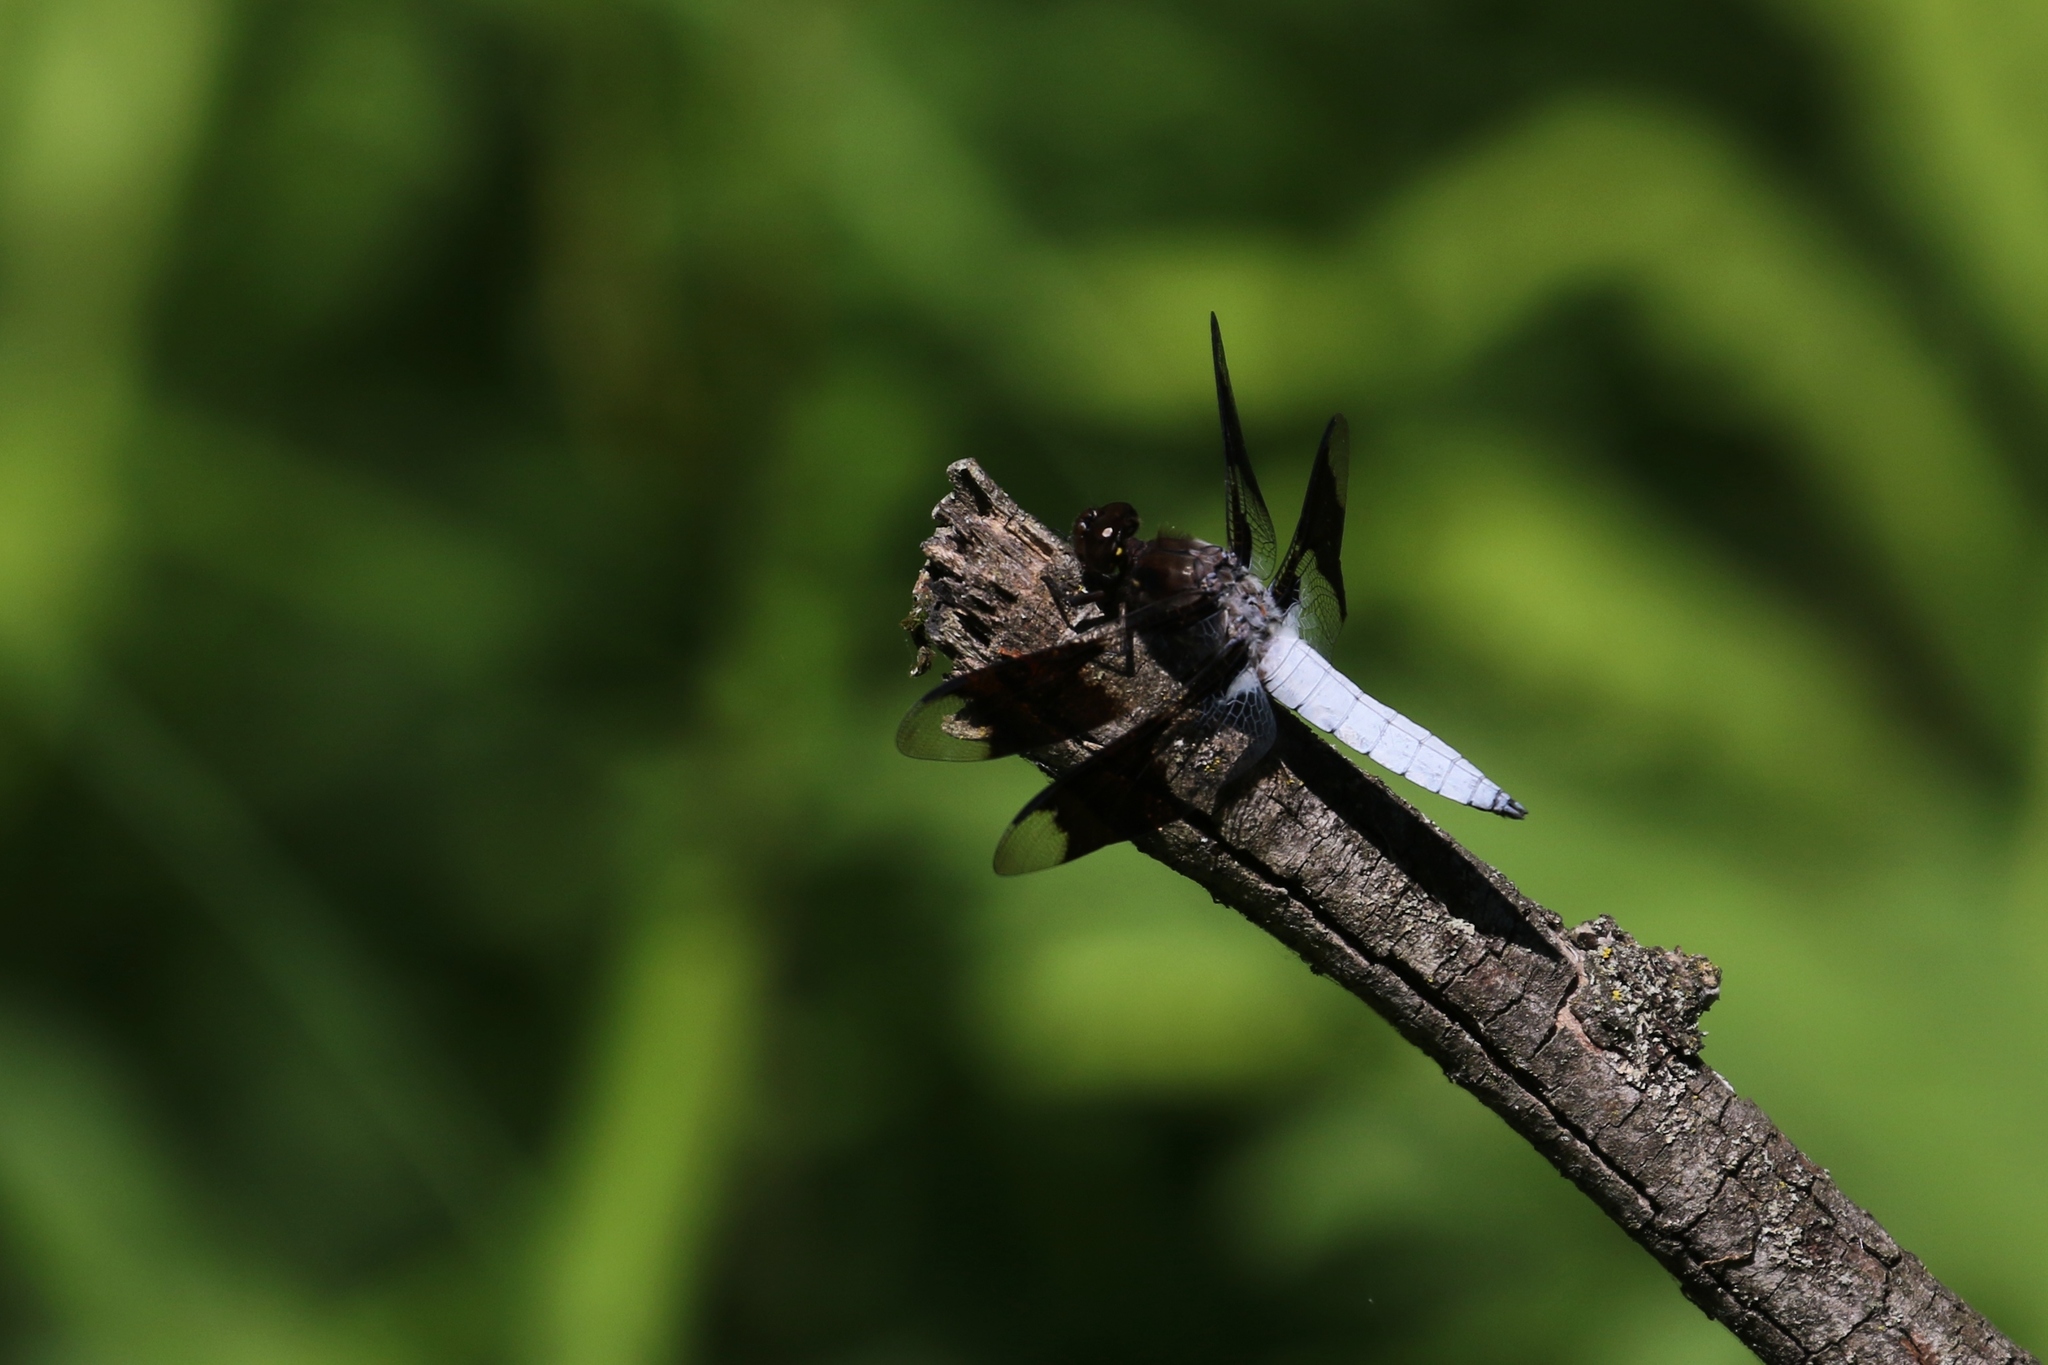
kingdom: Animalia
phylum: Arthropoda
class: Insecta
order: Odonata
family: Libellulidae
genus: Plathemis
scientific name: Plathemis lydia
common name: Common whitetail
